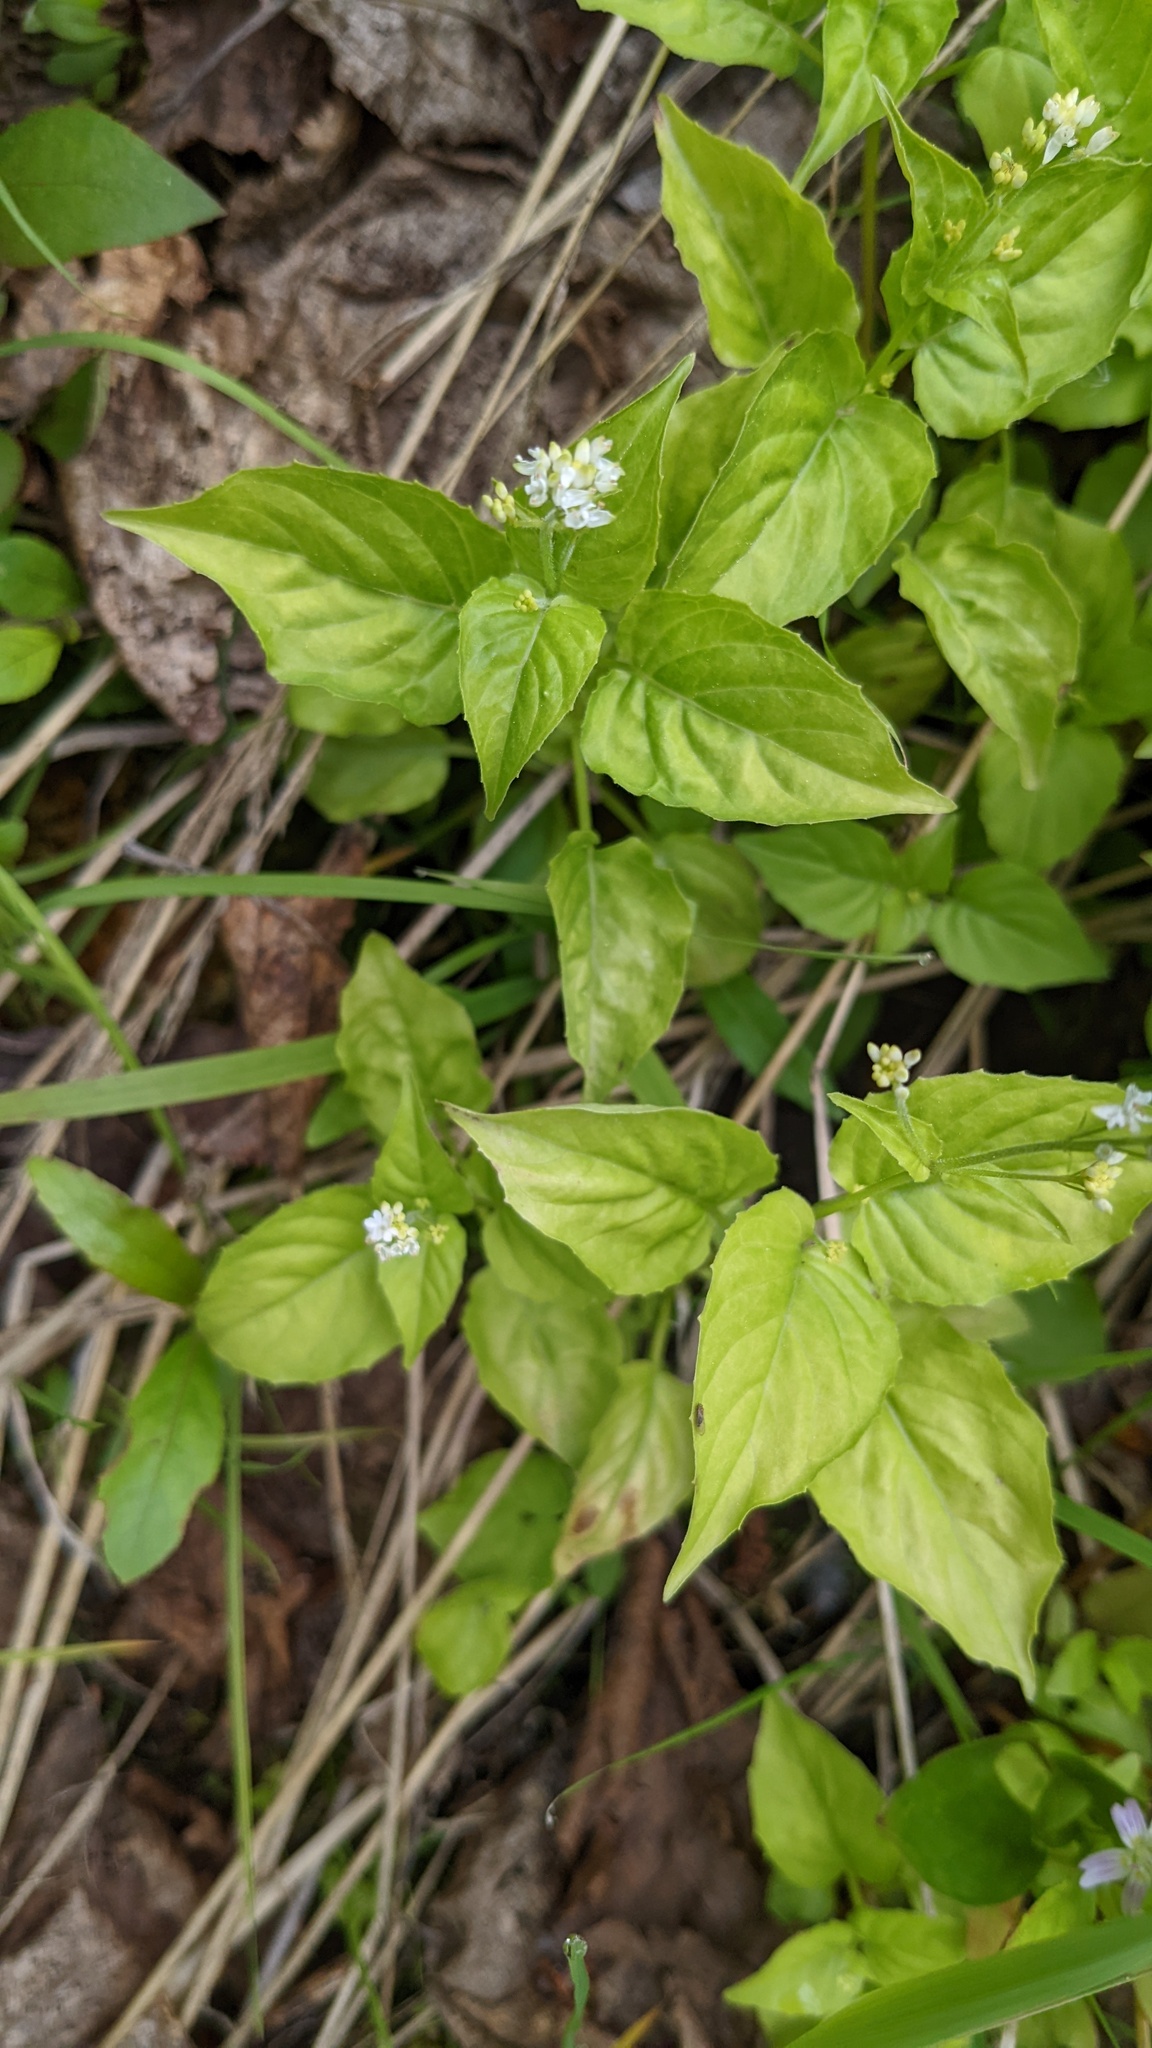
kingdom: Plantae
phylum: Tracheophyta
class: Magnoliopsida
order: Myrtales
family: Onagraceae
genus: Circaea
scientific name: Circaea alpina
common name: Alpine enchanter's-nightshade
